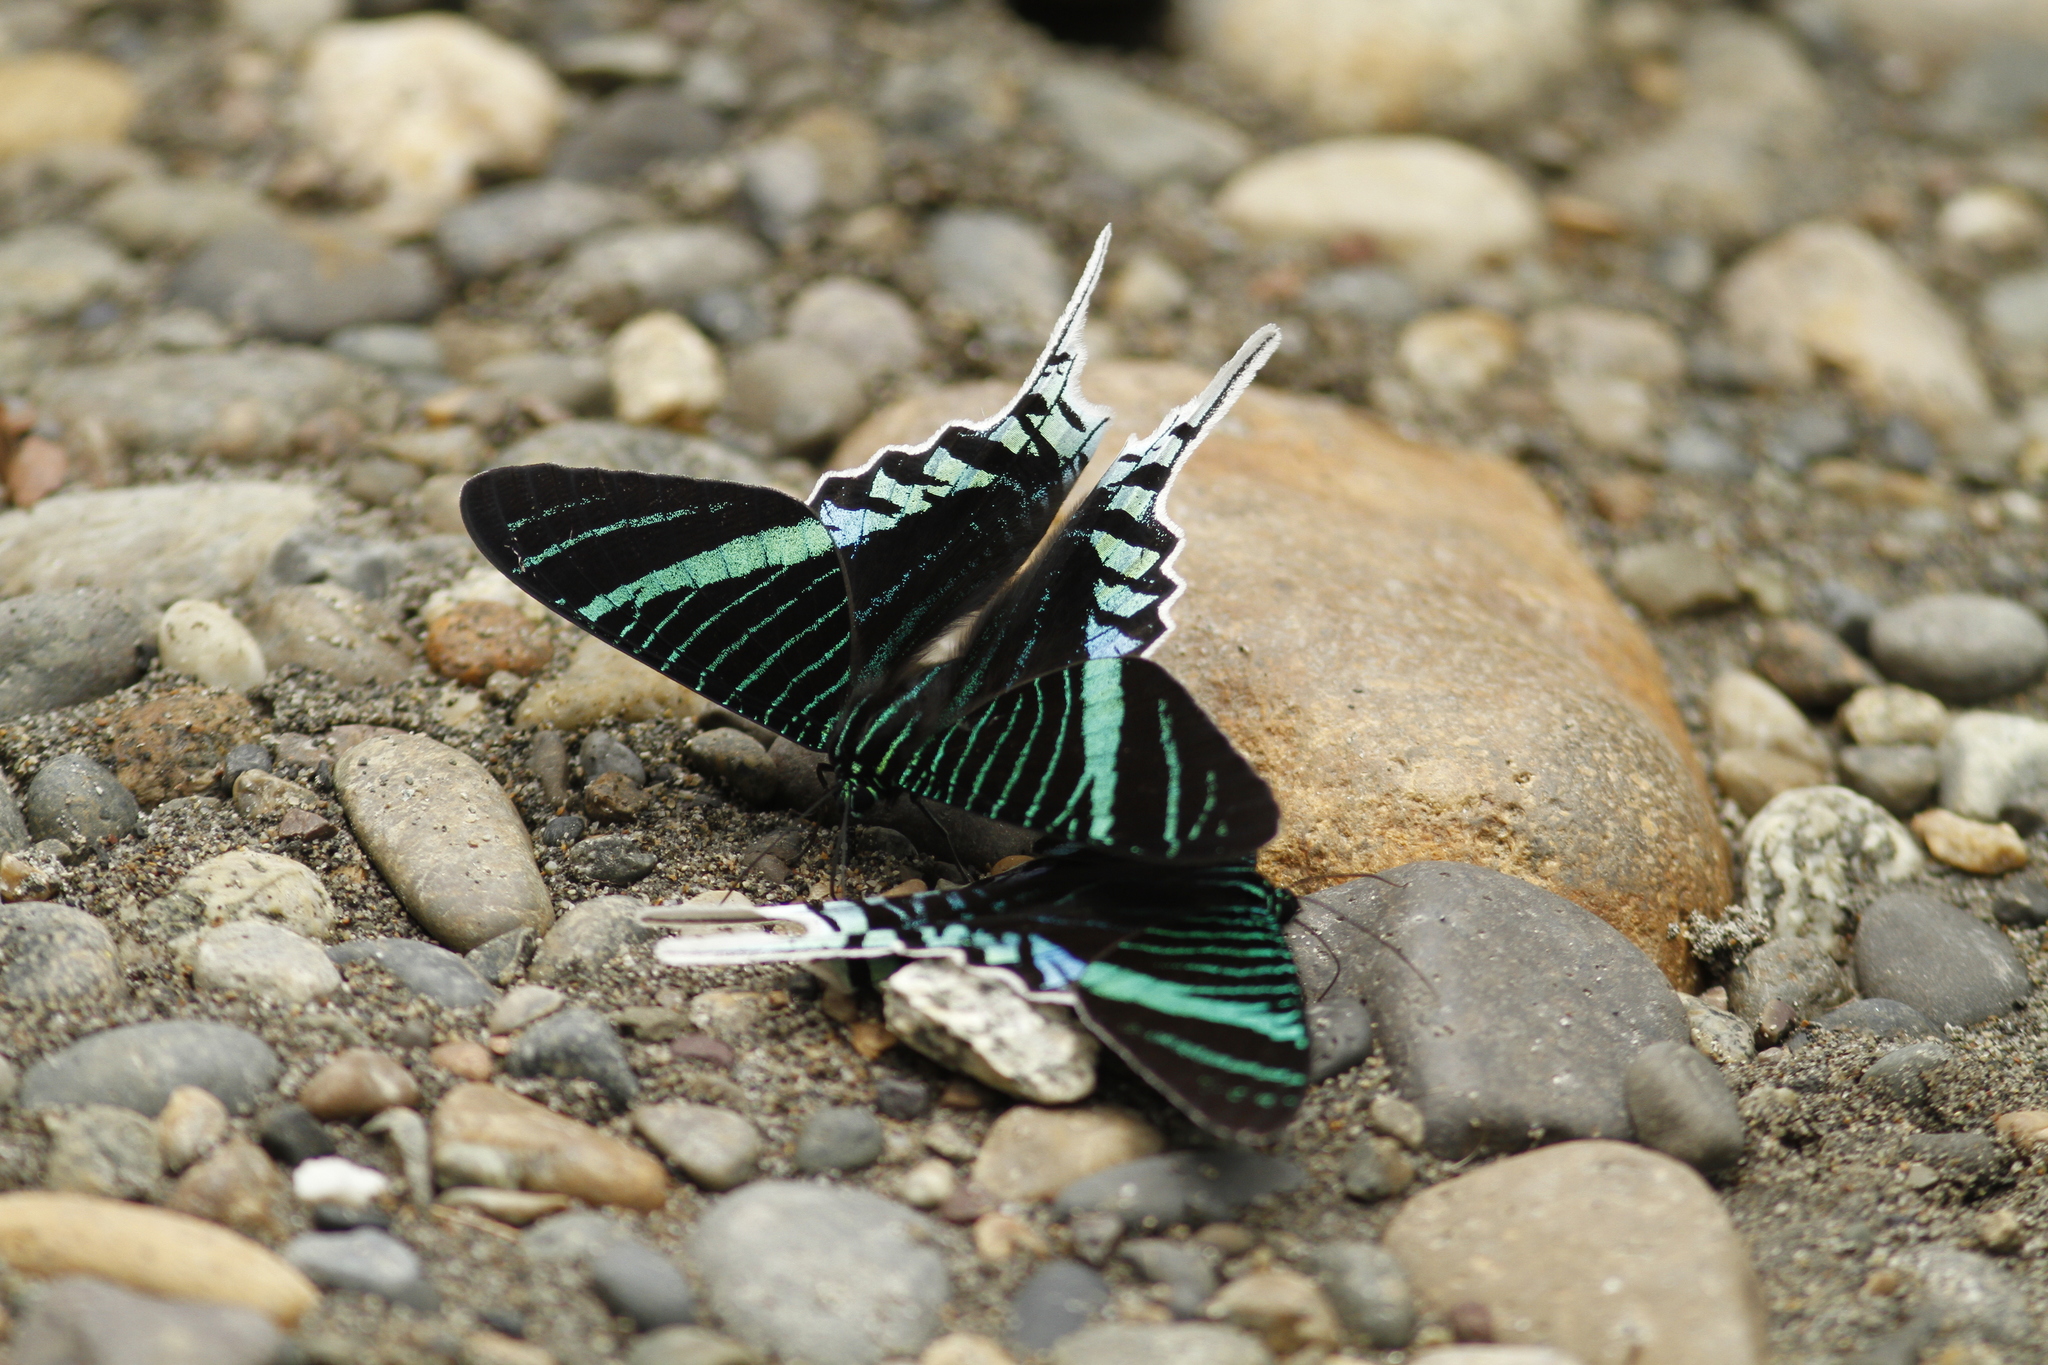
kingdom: Animalia
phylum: Arthropoda
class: Insecta
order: Lepidoptera
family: Uraniidae
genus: Urania
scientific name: Urania leilus
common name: Peacock moth
